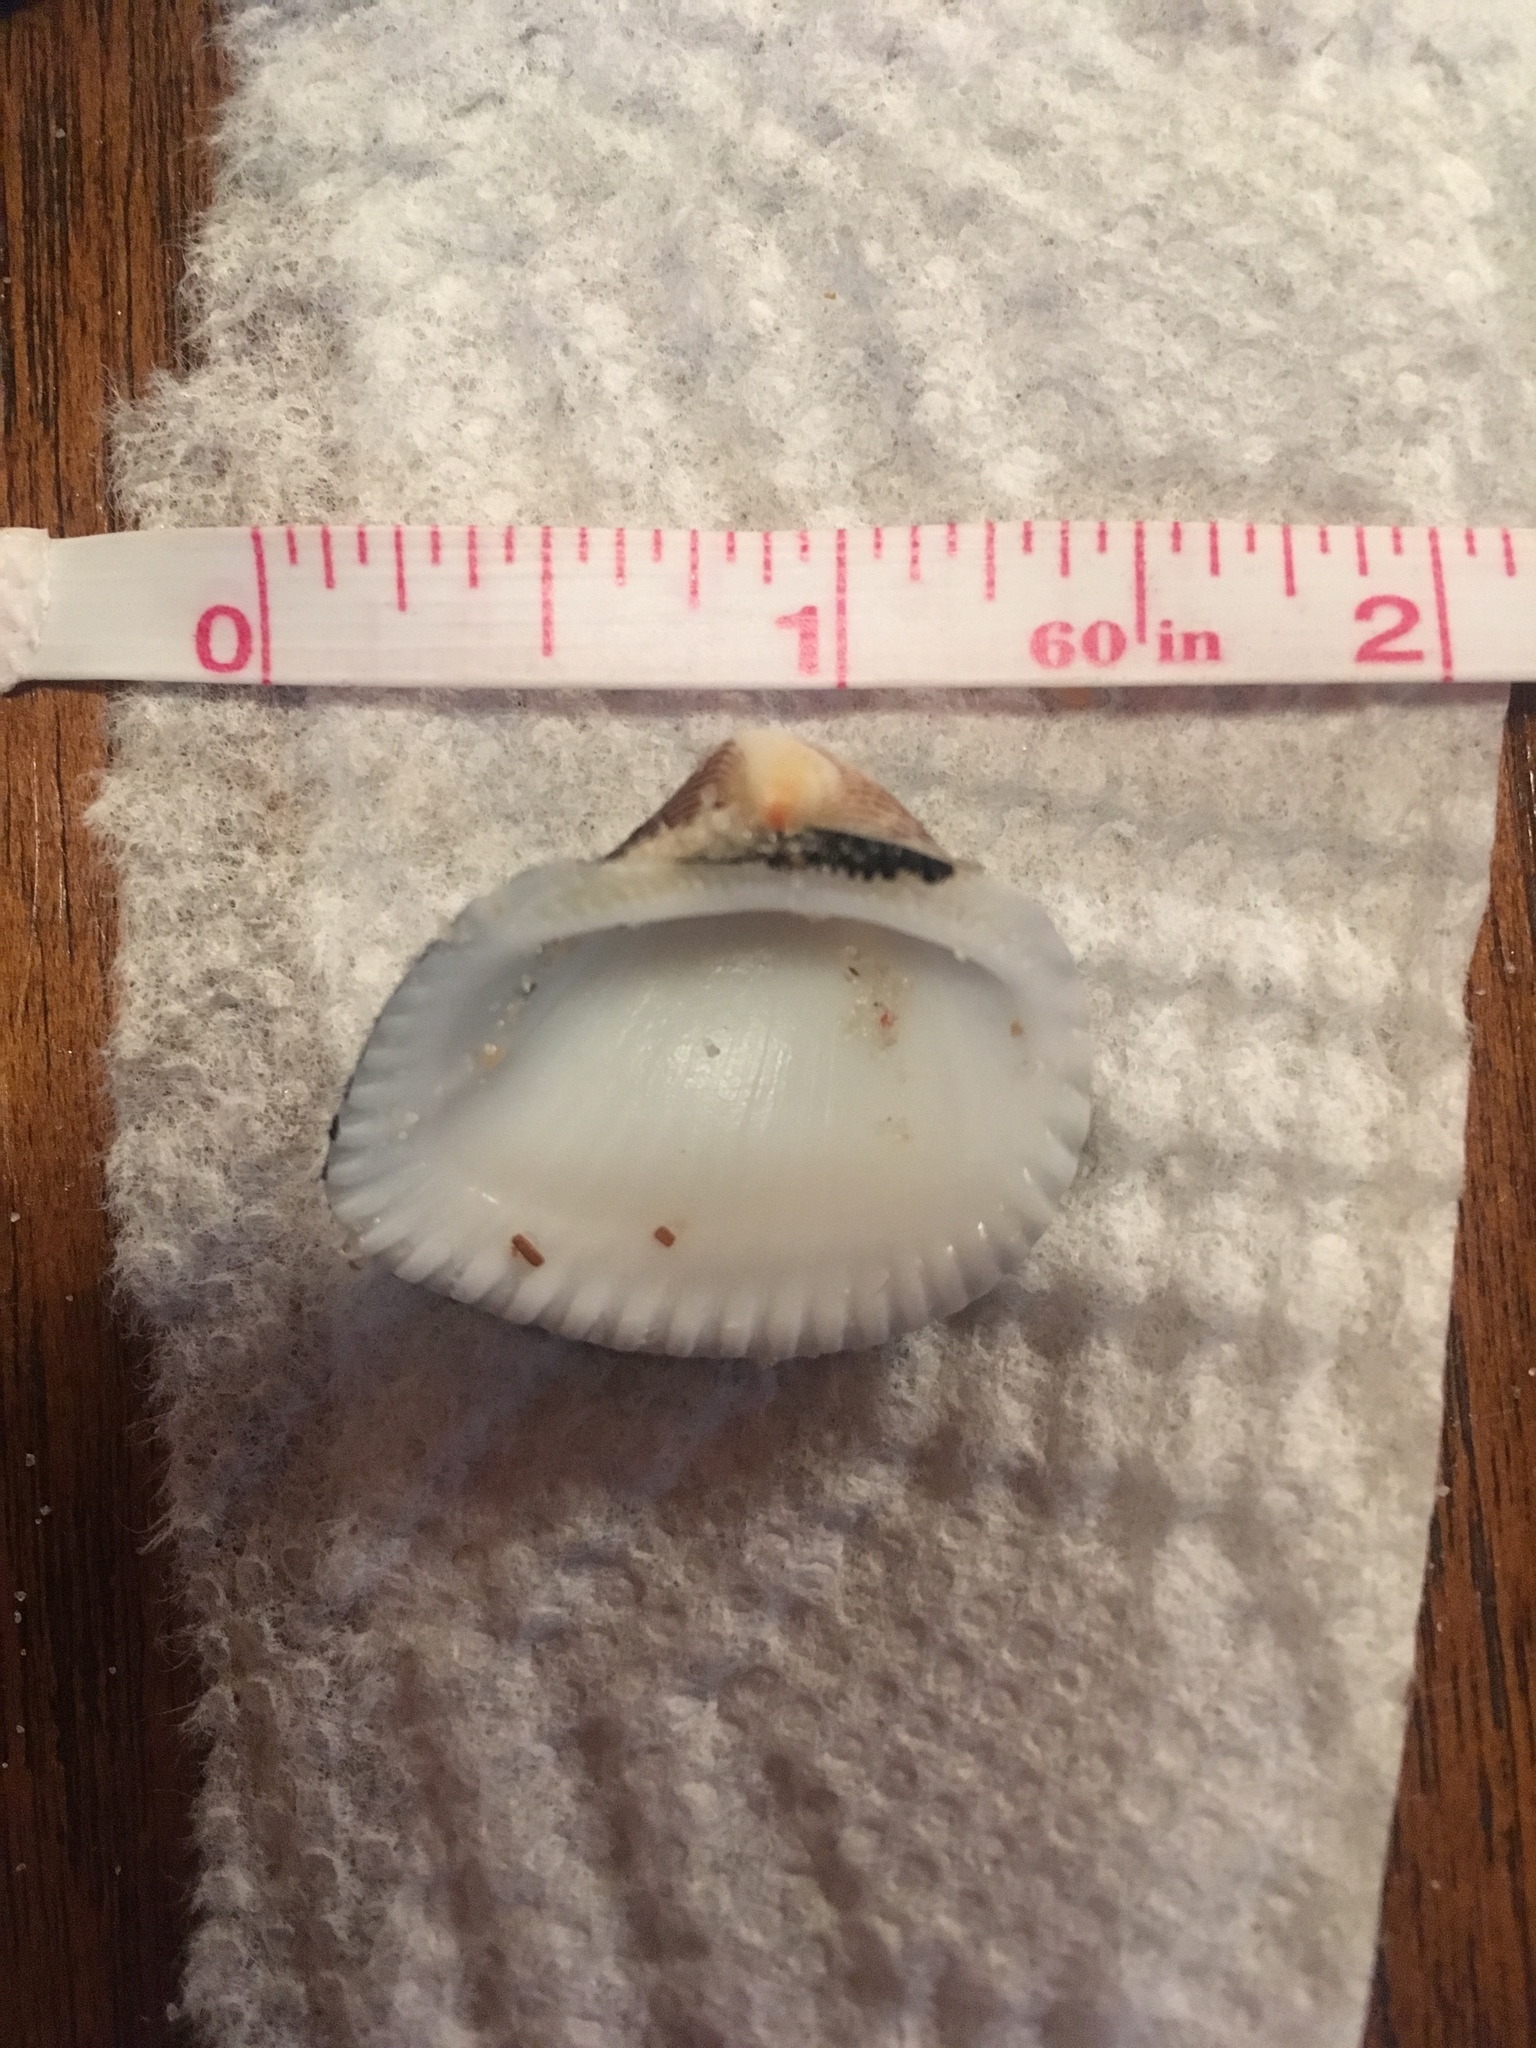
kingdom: Animalia
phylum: Mollusca
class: Bivalvia
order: Arcida
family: Noetiidae
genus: Noetia
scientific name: Noetia ponderosa
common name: Ponderous ark
